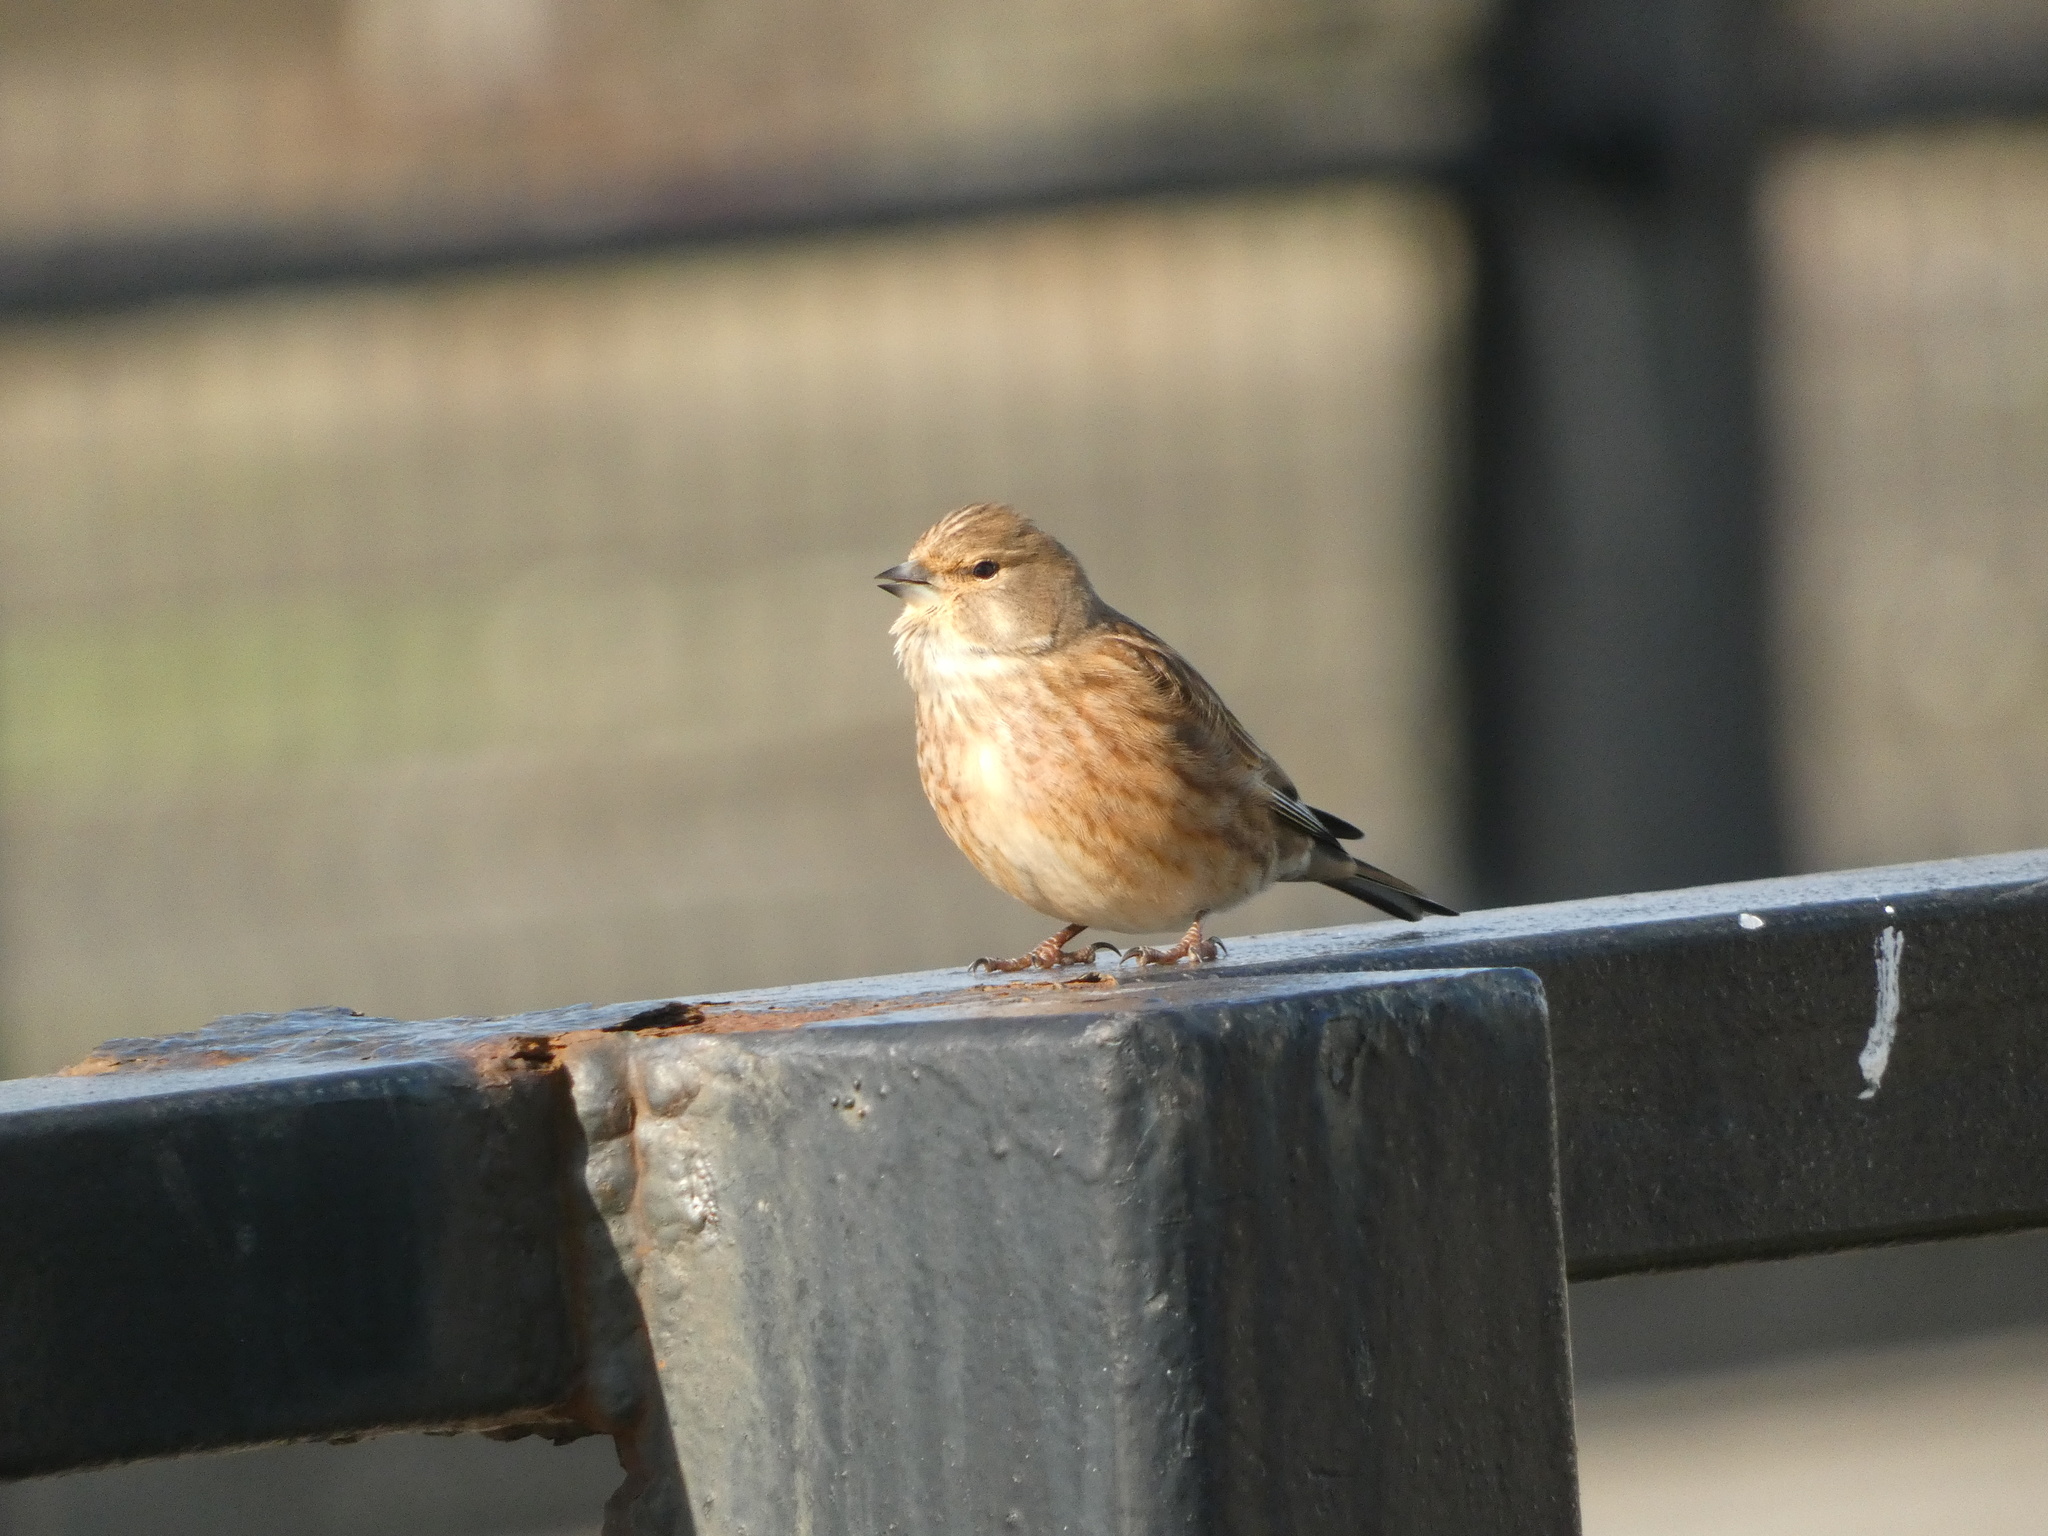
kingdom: Animalia
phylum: Chordata
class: Aves
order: Passeriformes
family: Fringillidae
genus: Linaria
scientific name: Linaria cannabina
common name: Common linnet
